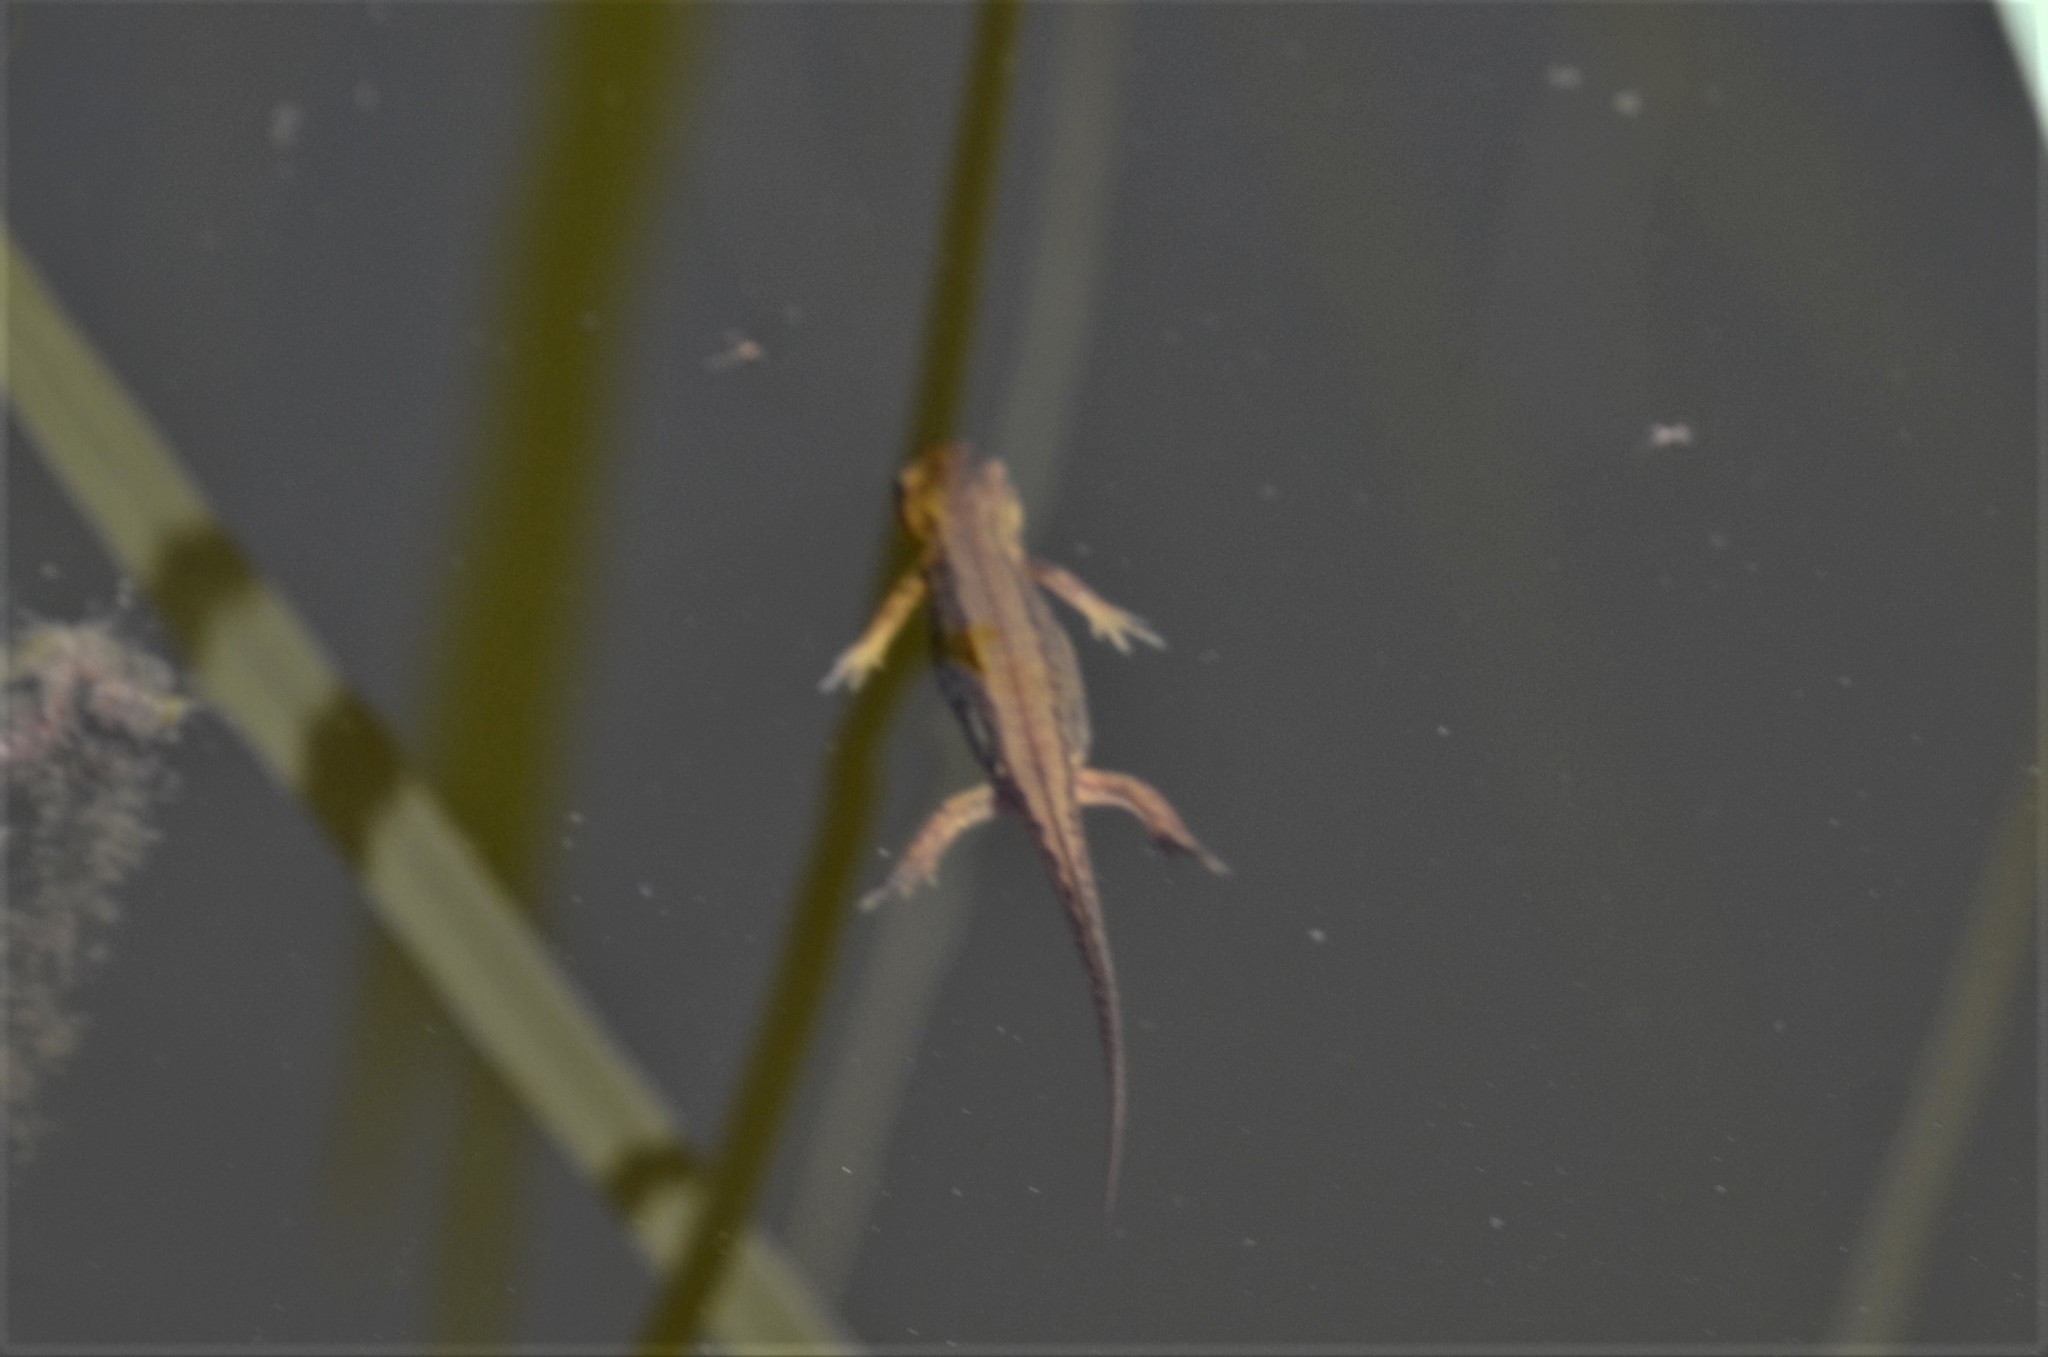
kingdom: Animalia
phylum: Chordata
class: Amphibia
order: Caudata
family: Salamandridae
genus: Lissotriton
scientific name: Lissotriton vulgaris
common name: Smooth newt
